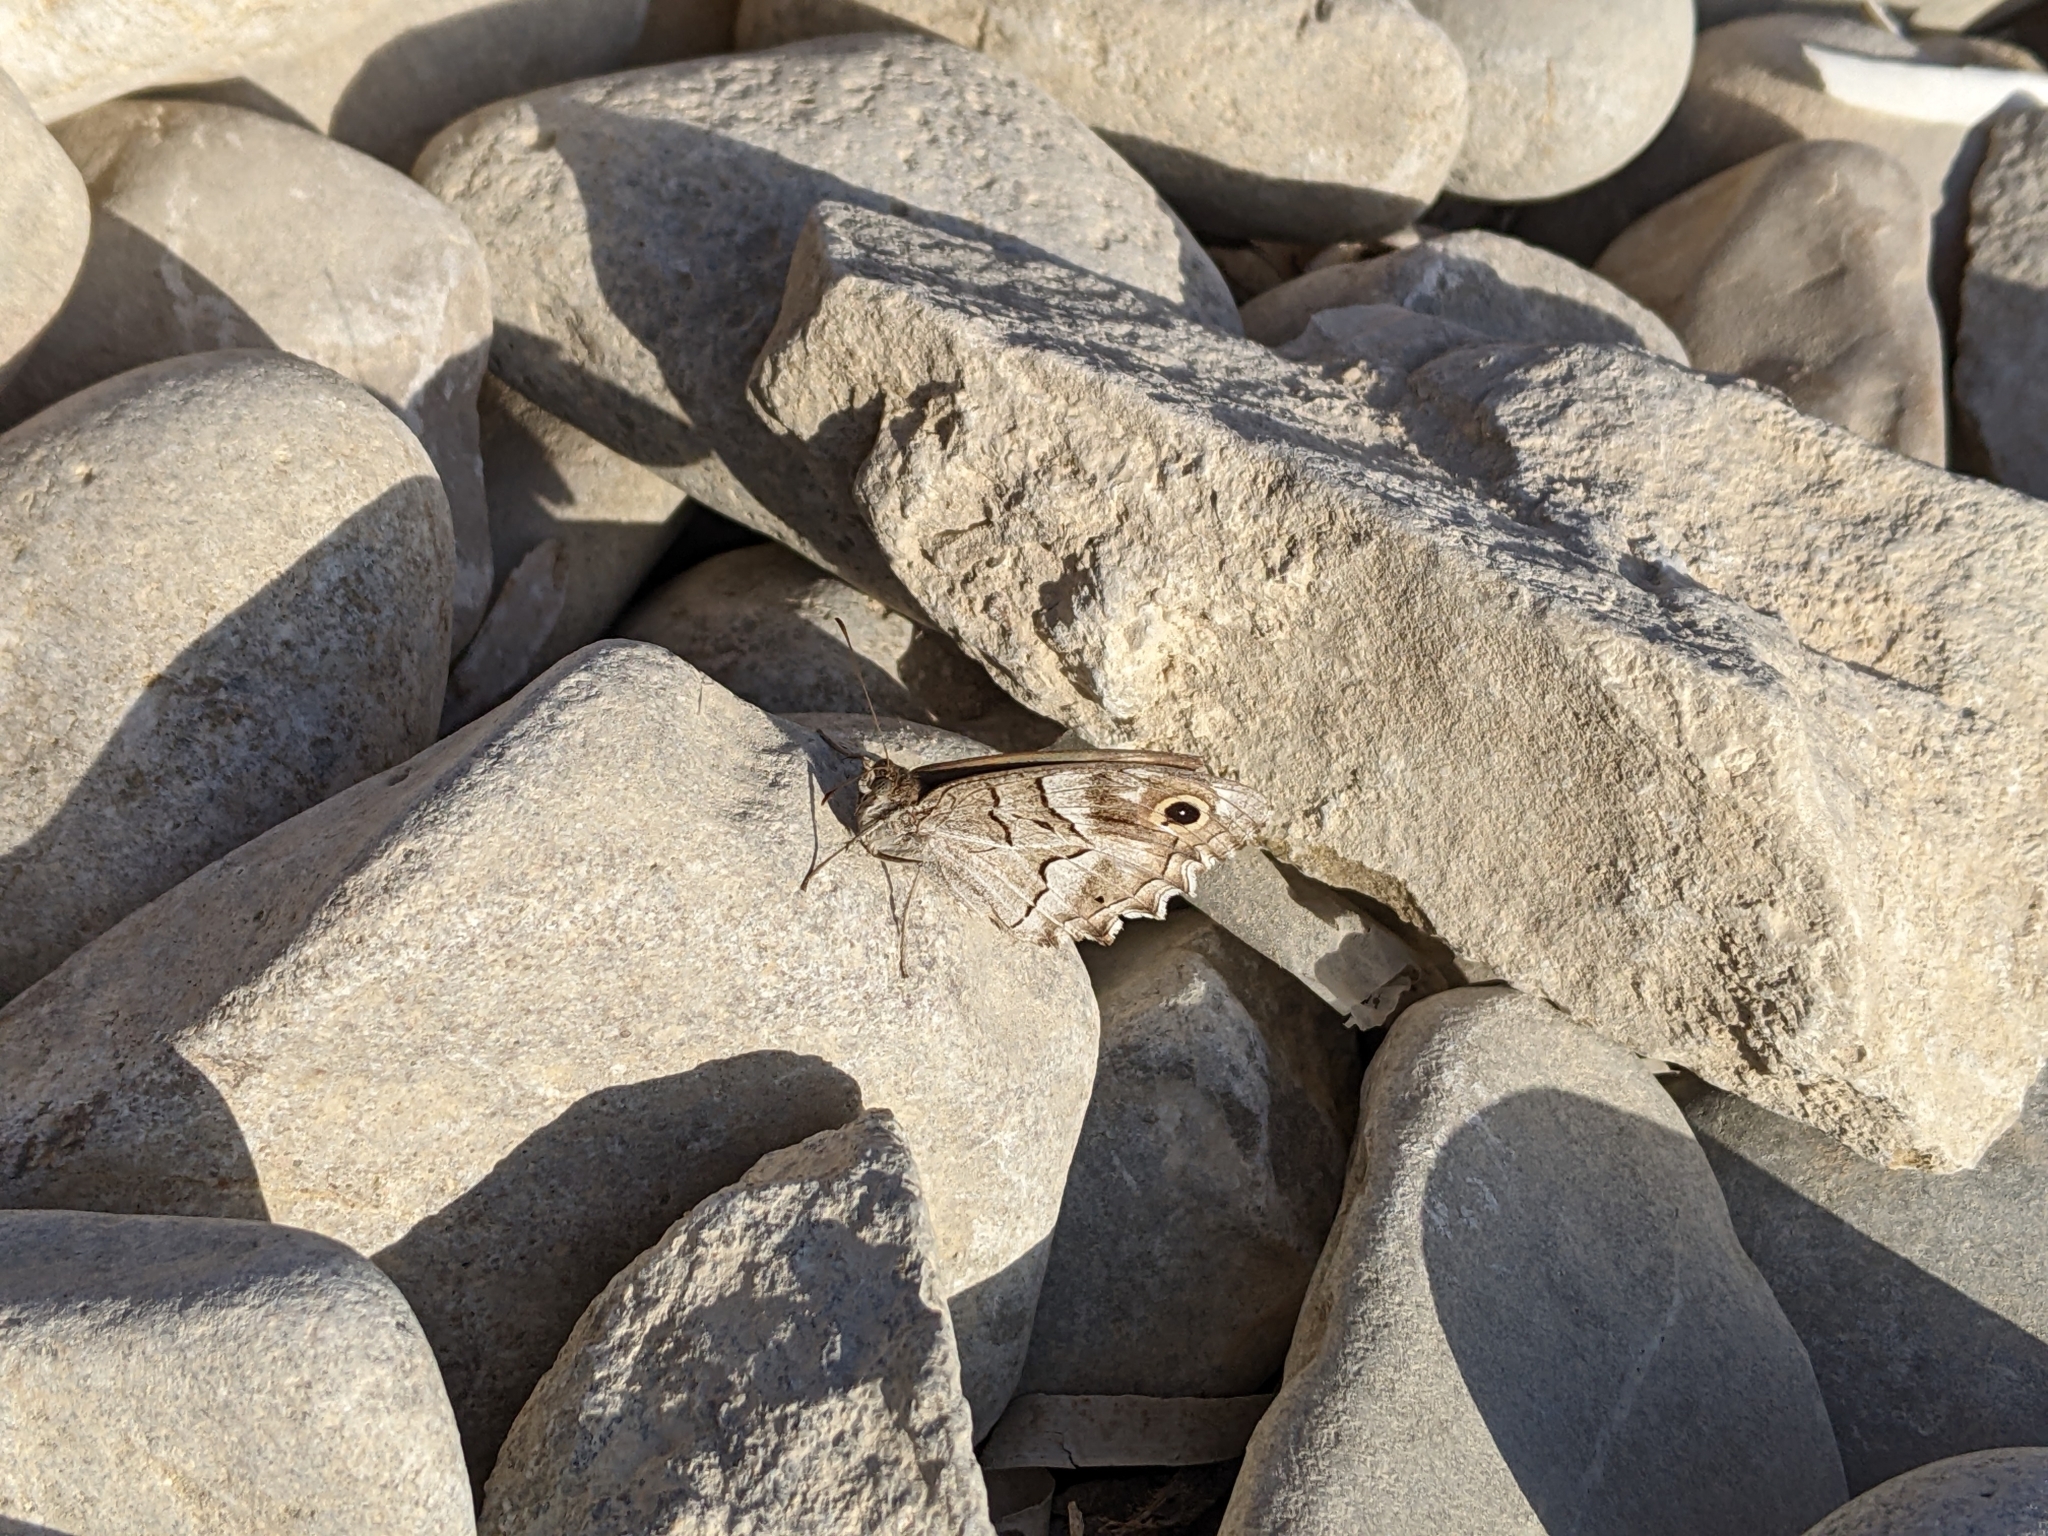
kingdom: Animalia
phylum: Arthropoda
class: Insecta
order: Lepidoptera
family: Nymphalidae
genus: Hipparchia
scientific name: Hipparchia fidia
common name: Striped grayling
